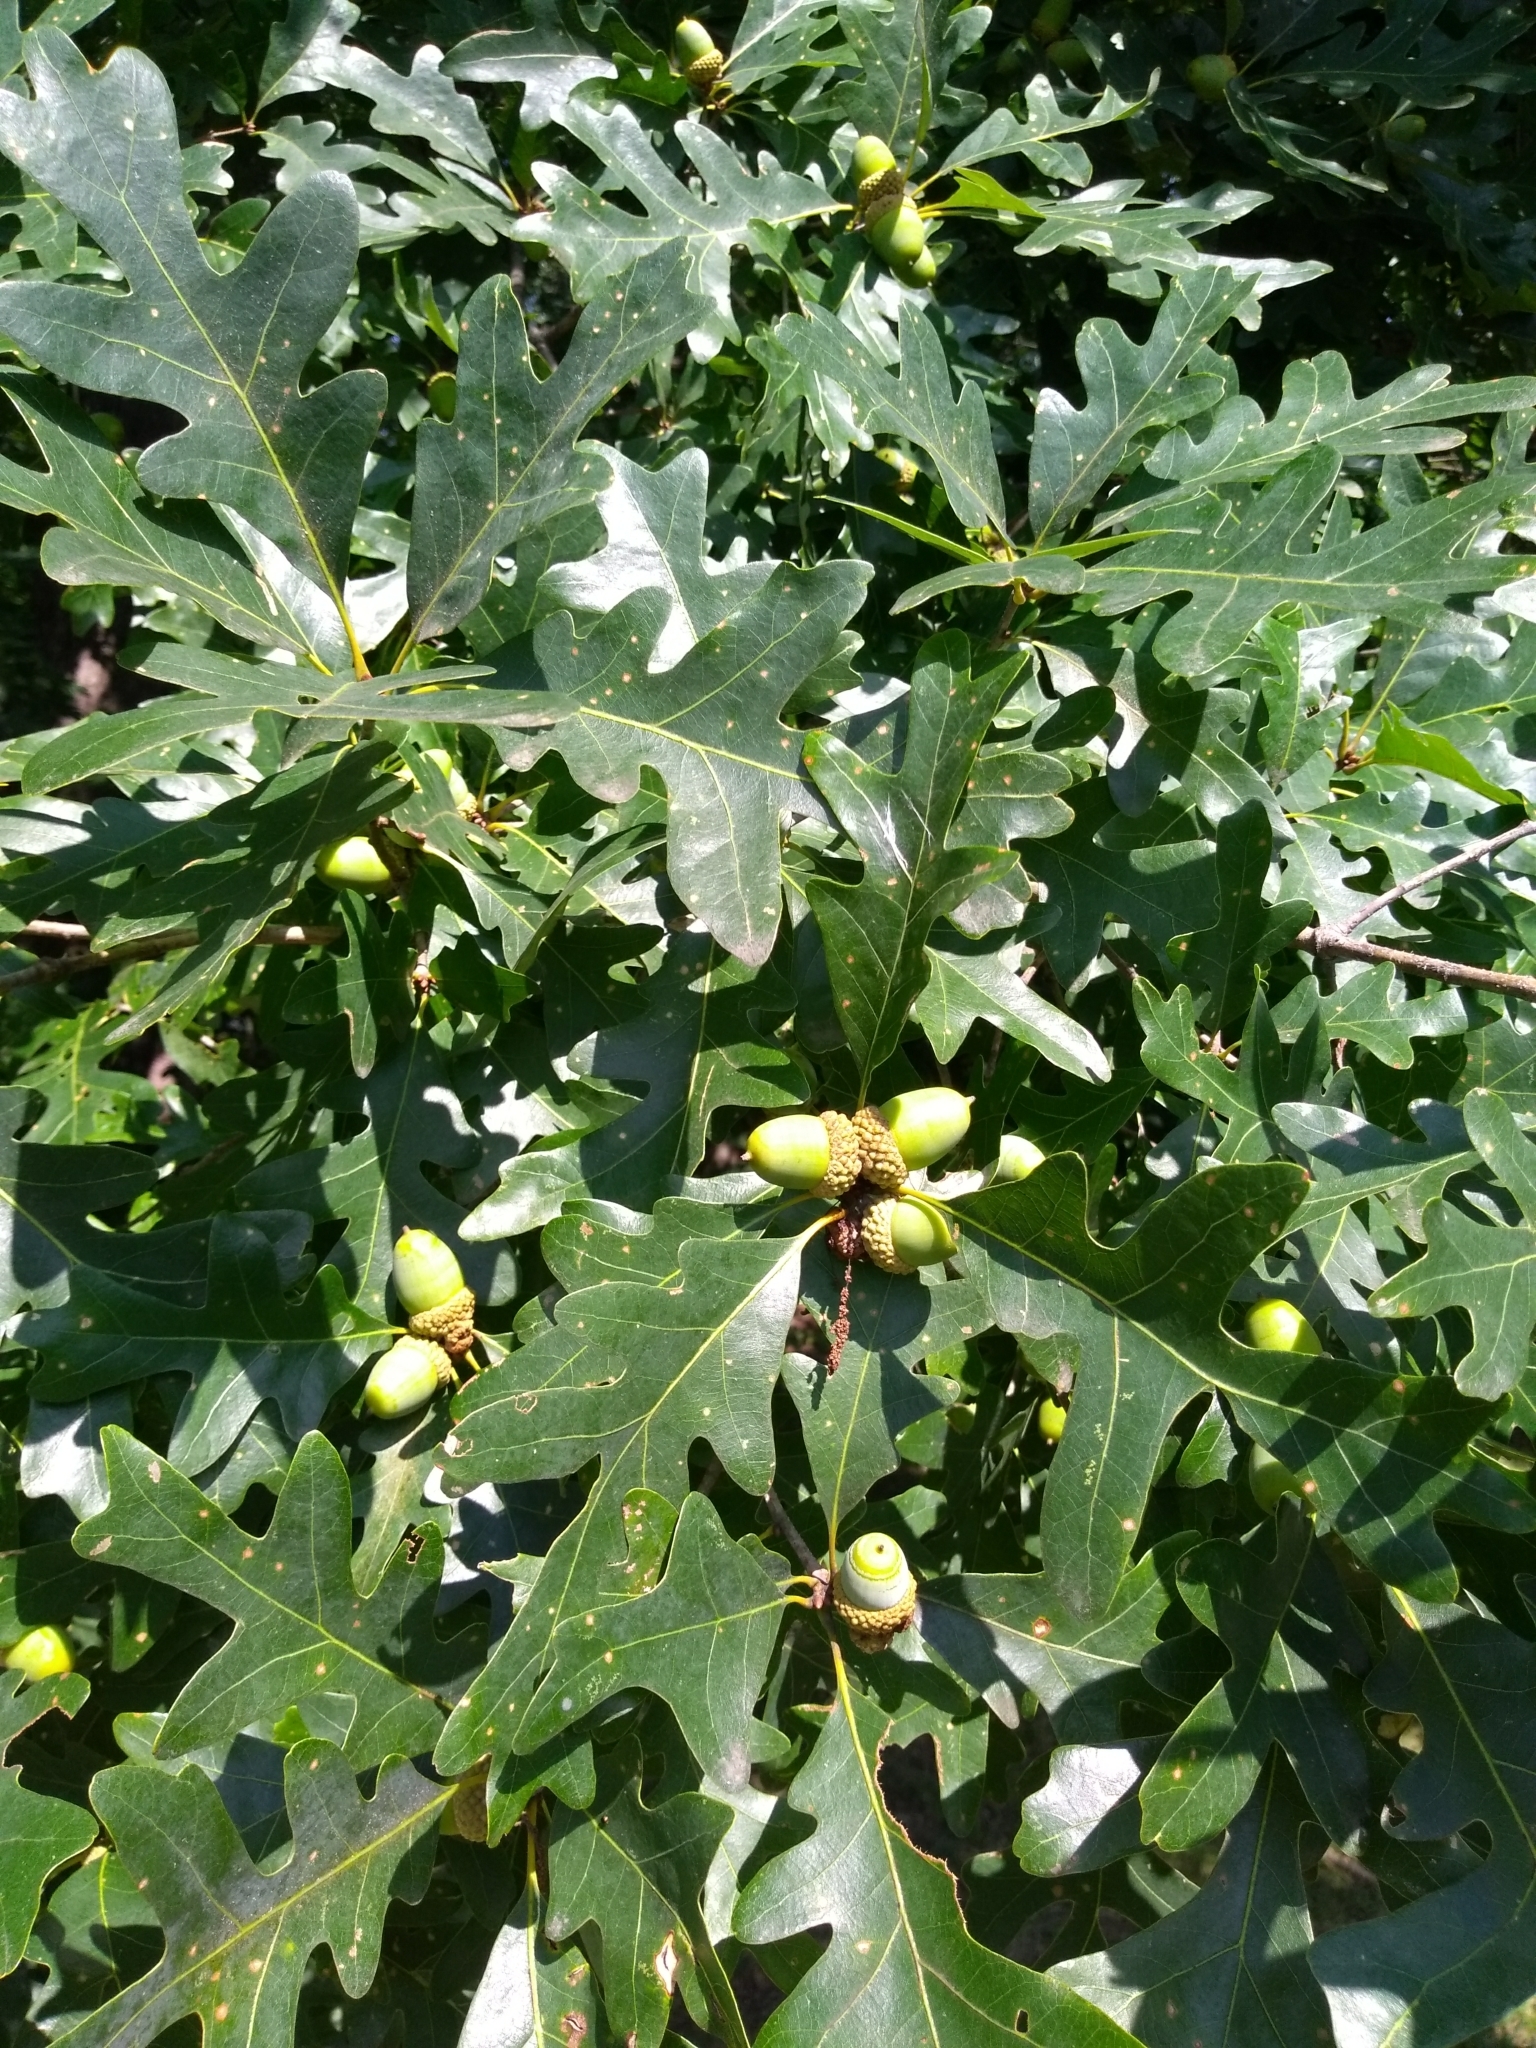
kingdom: Plantae
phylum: Tracheophyta
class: Magnoliopsida
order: Fagales
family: Fagaceae
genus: Quercus
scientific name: Quercus alba
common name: White oak
